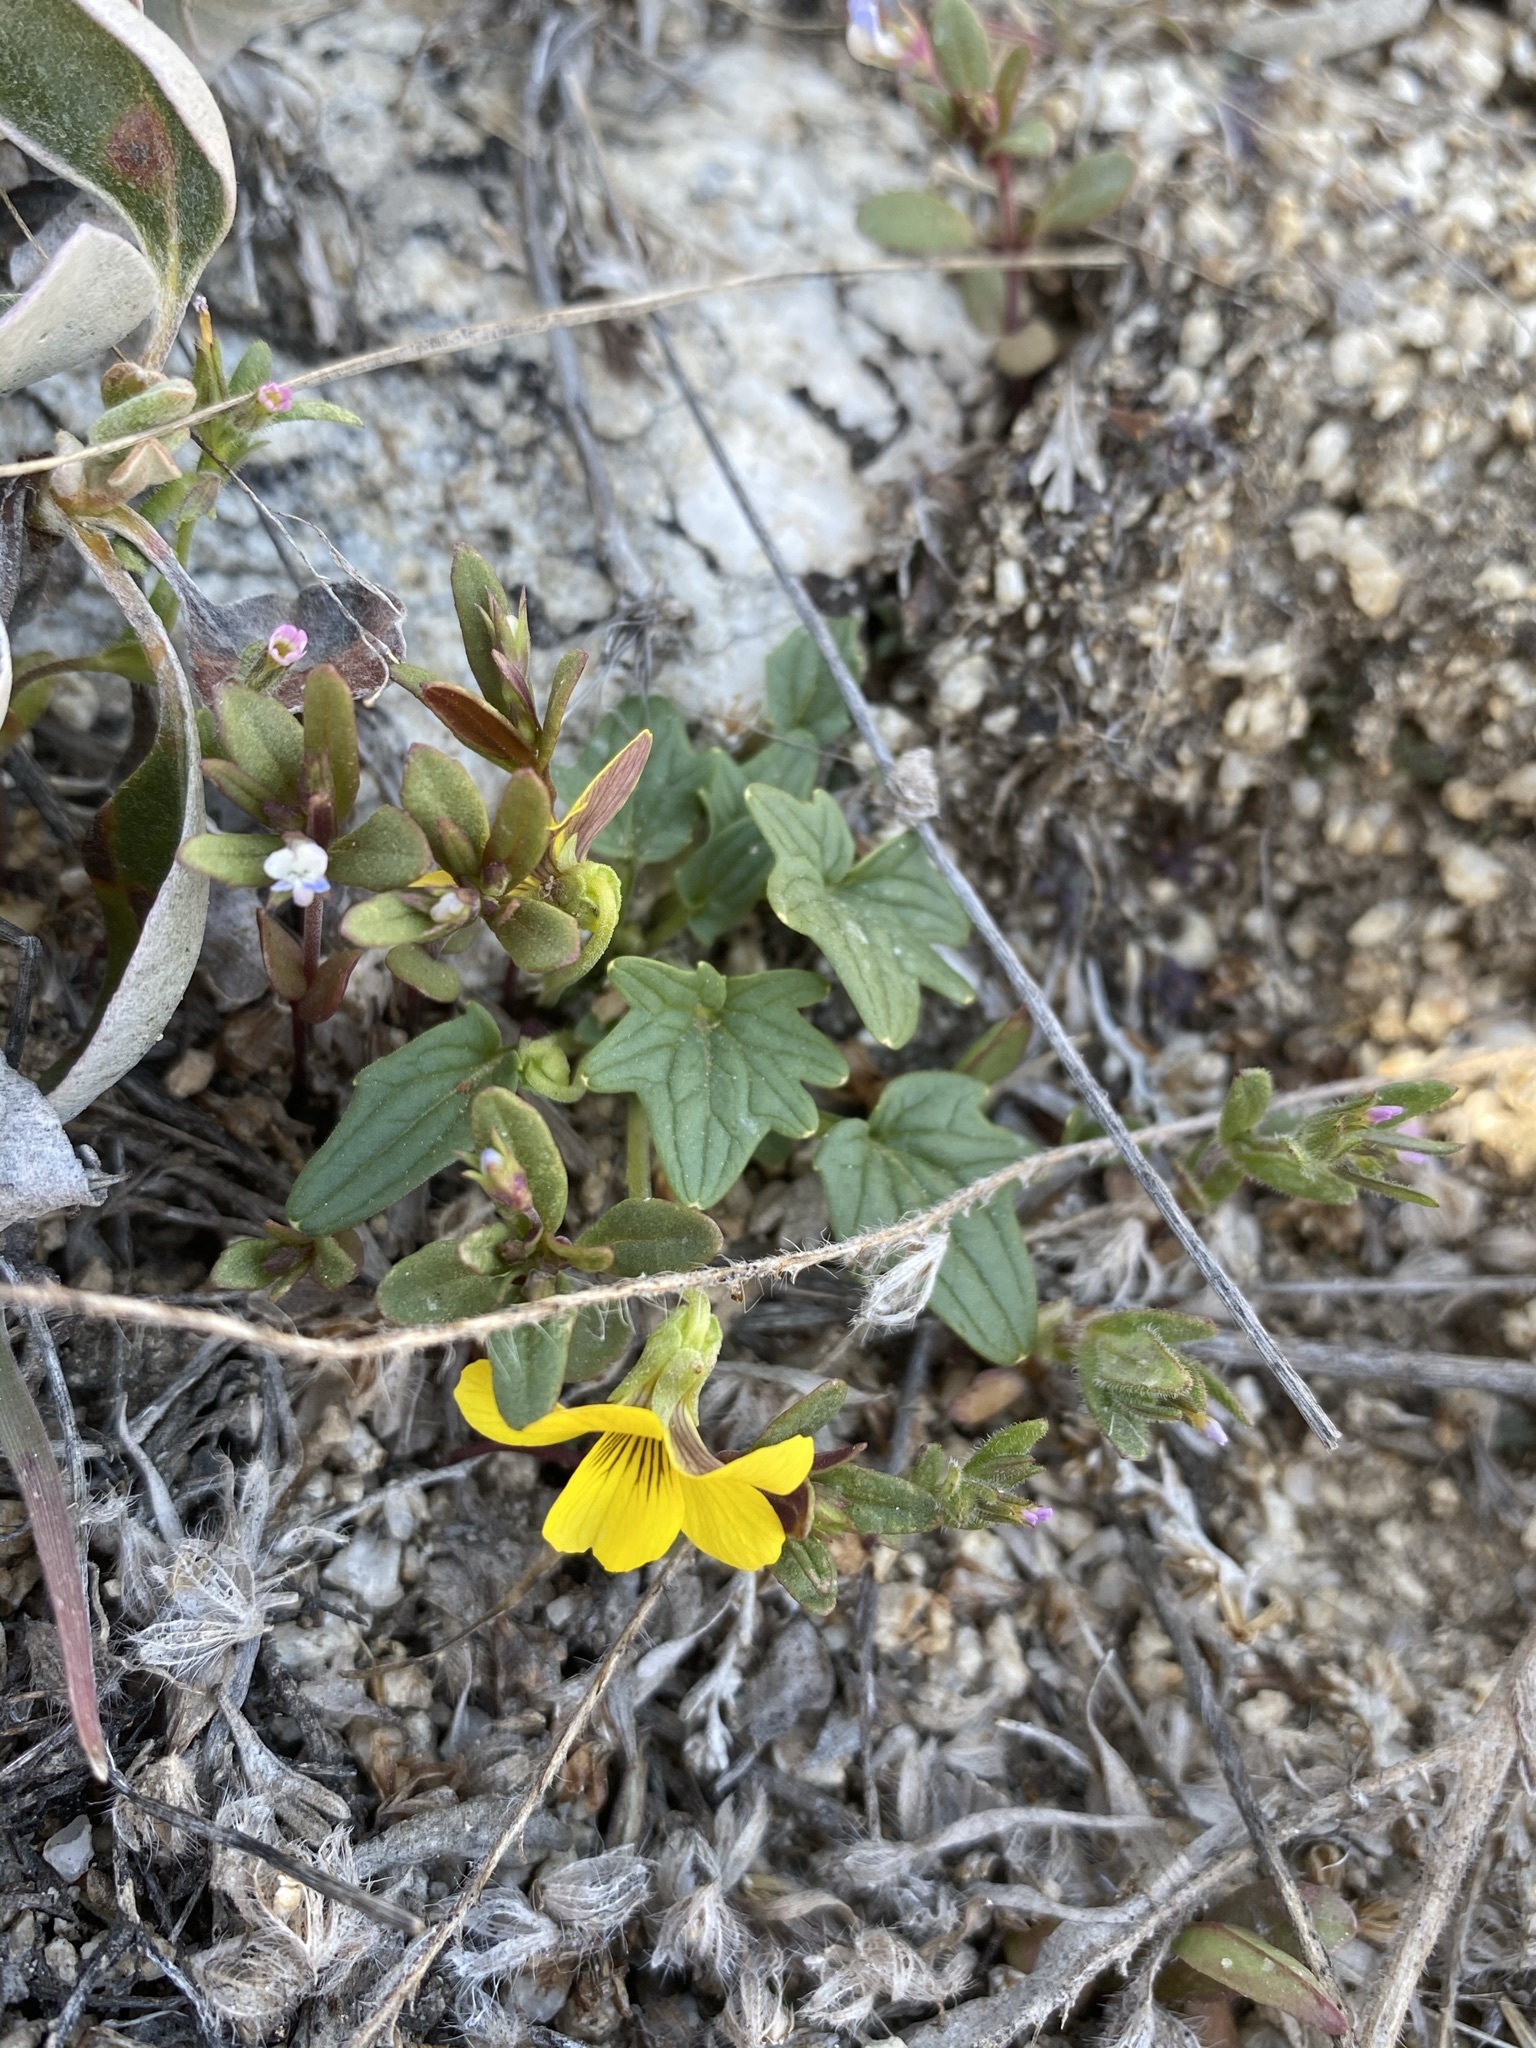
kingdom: Plantae
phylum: Tracheophyta
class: Magnoliopsida
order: Malpighiales
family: Violaceae
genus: Viola
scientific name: Viola purpurea
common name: Pine violet
